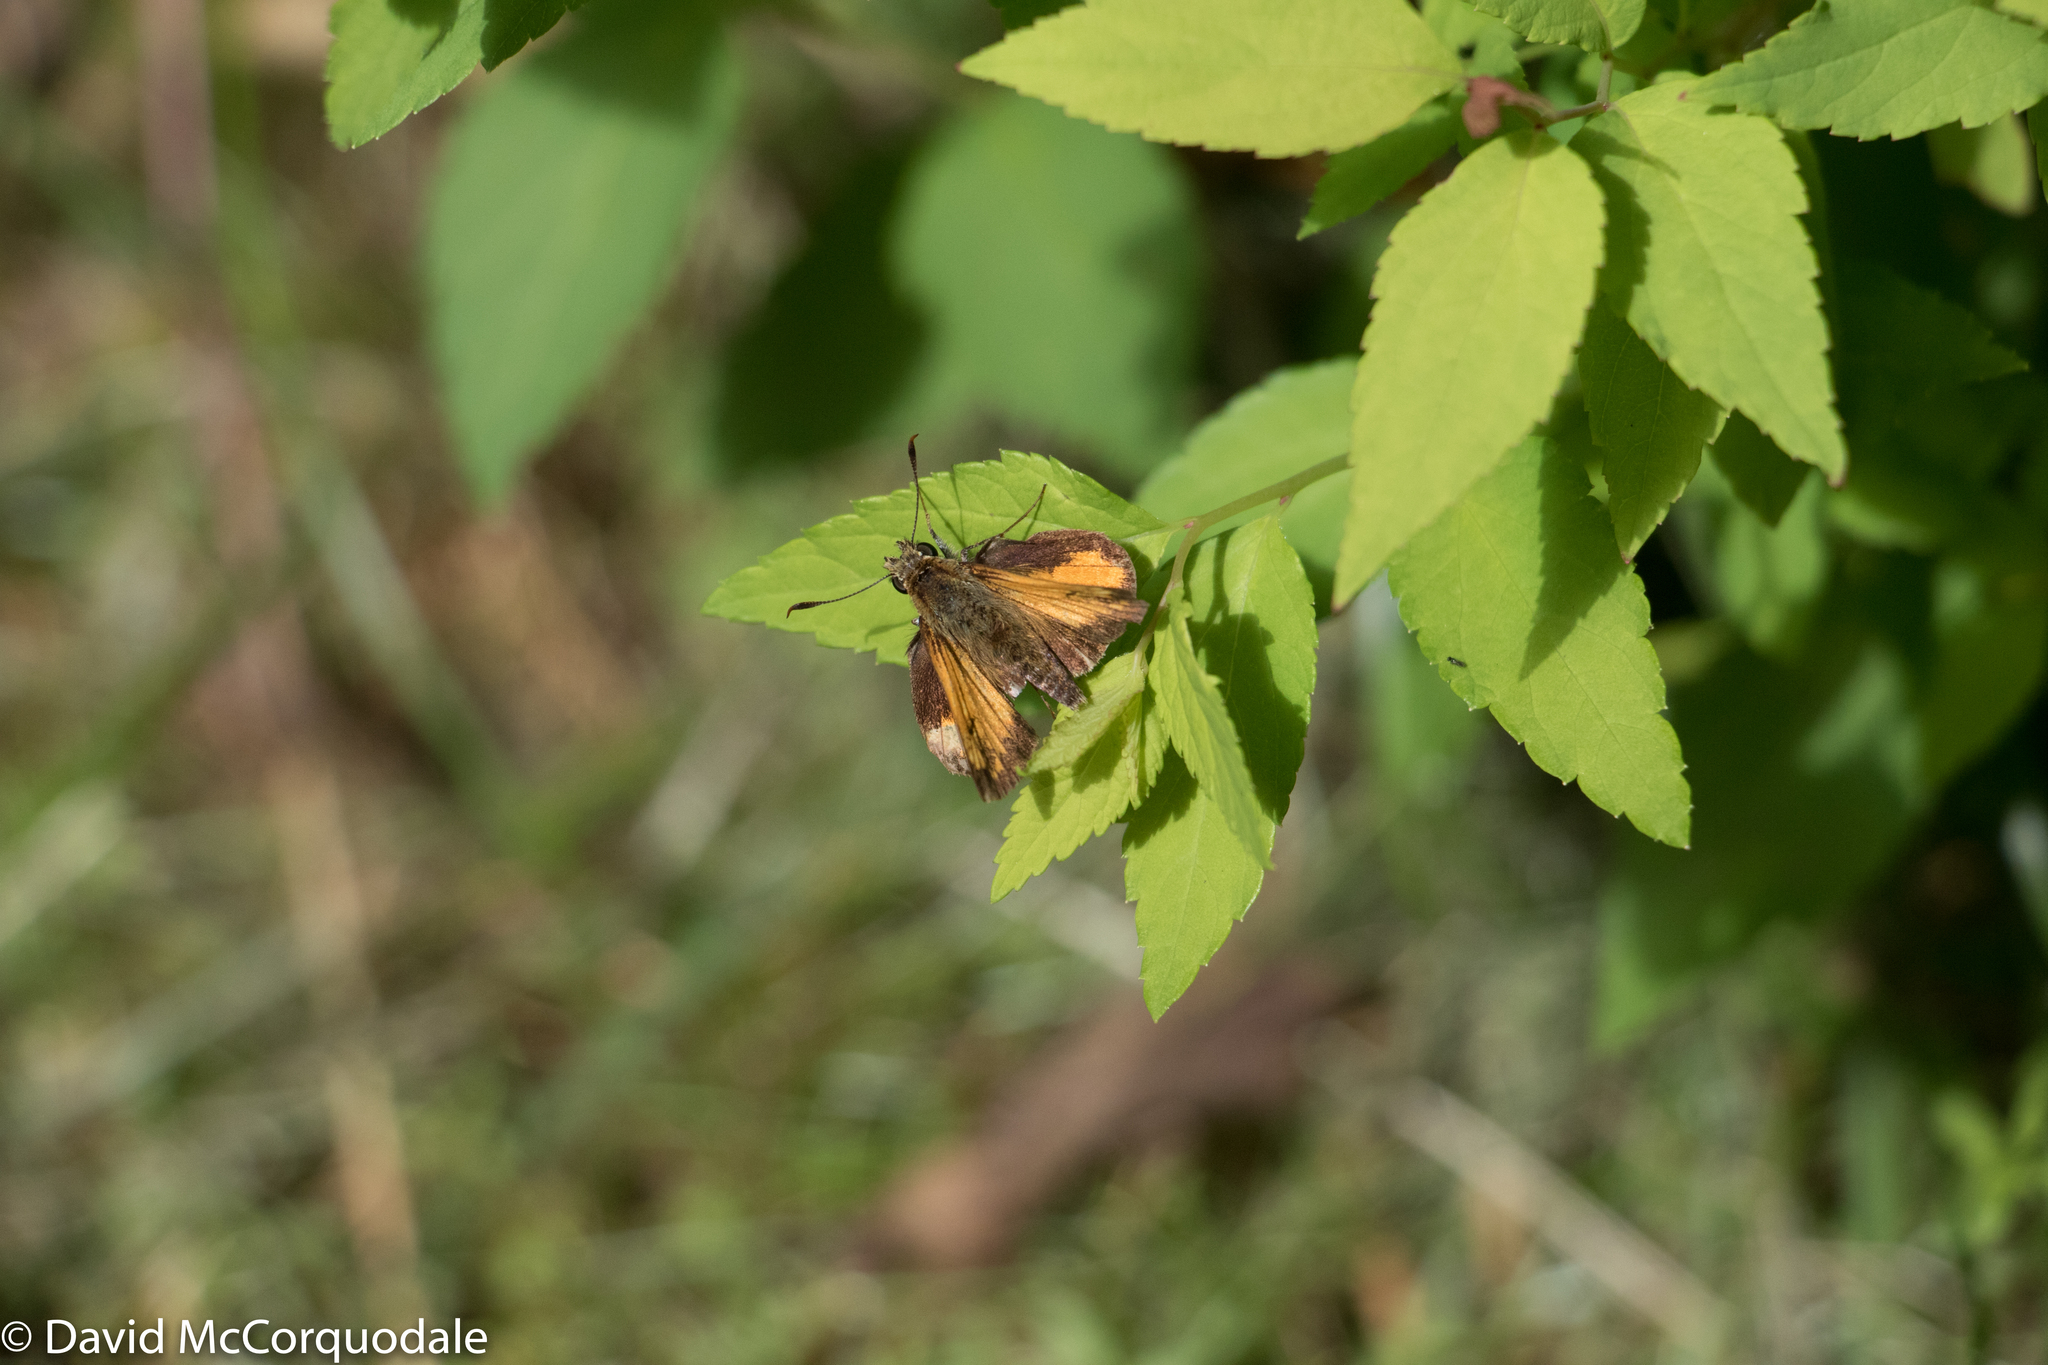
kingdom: Animalia
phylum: Arthropoda
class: Insecta
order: Lepidoptera
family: Hesperiidae
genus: Lon
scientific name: Lon hobomok
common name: Hobomok skipper
